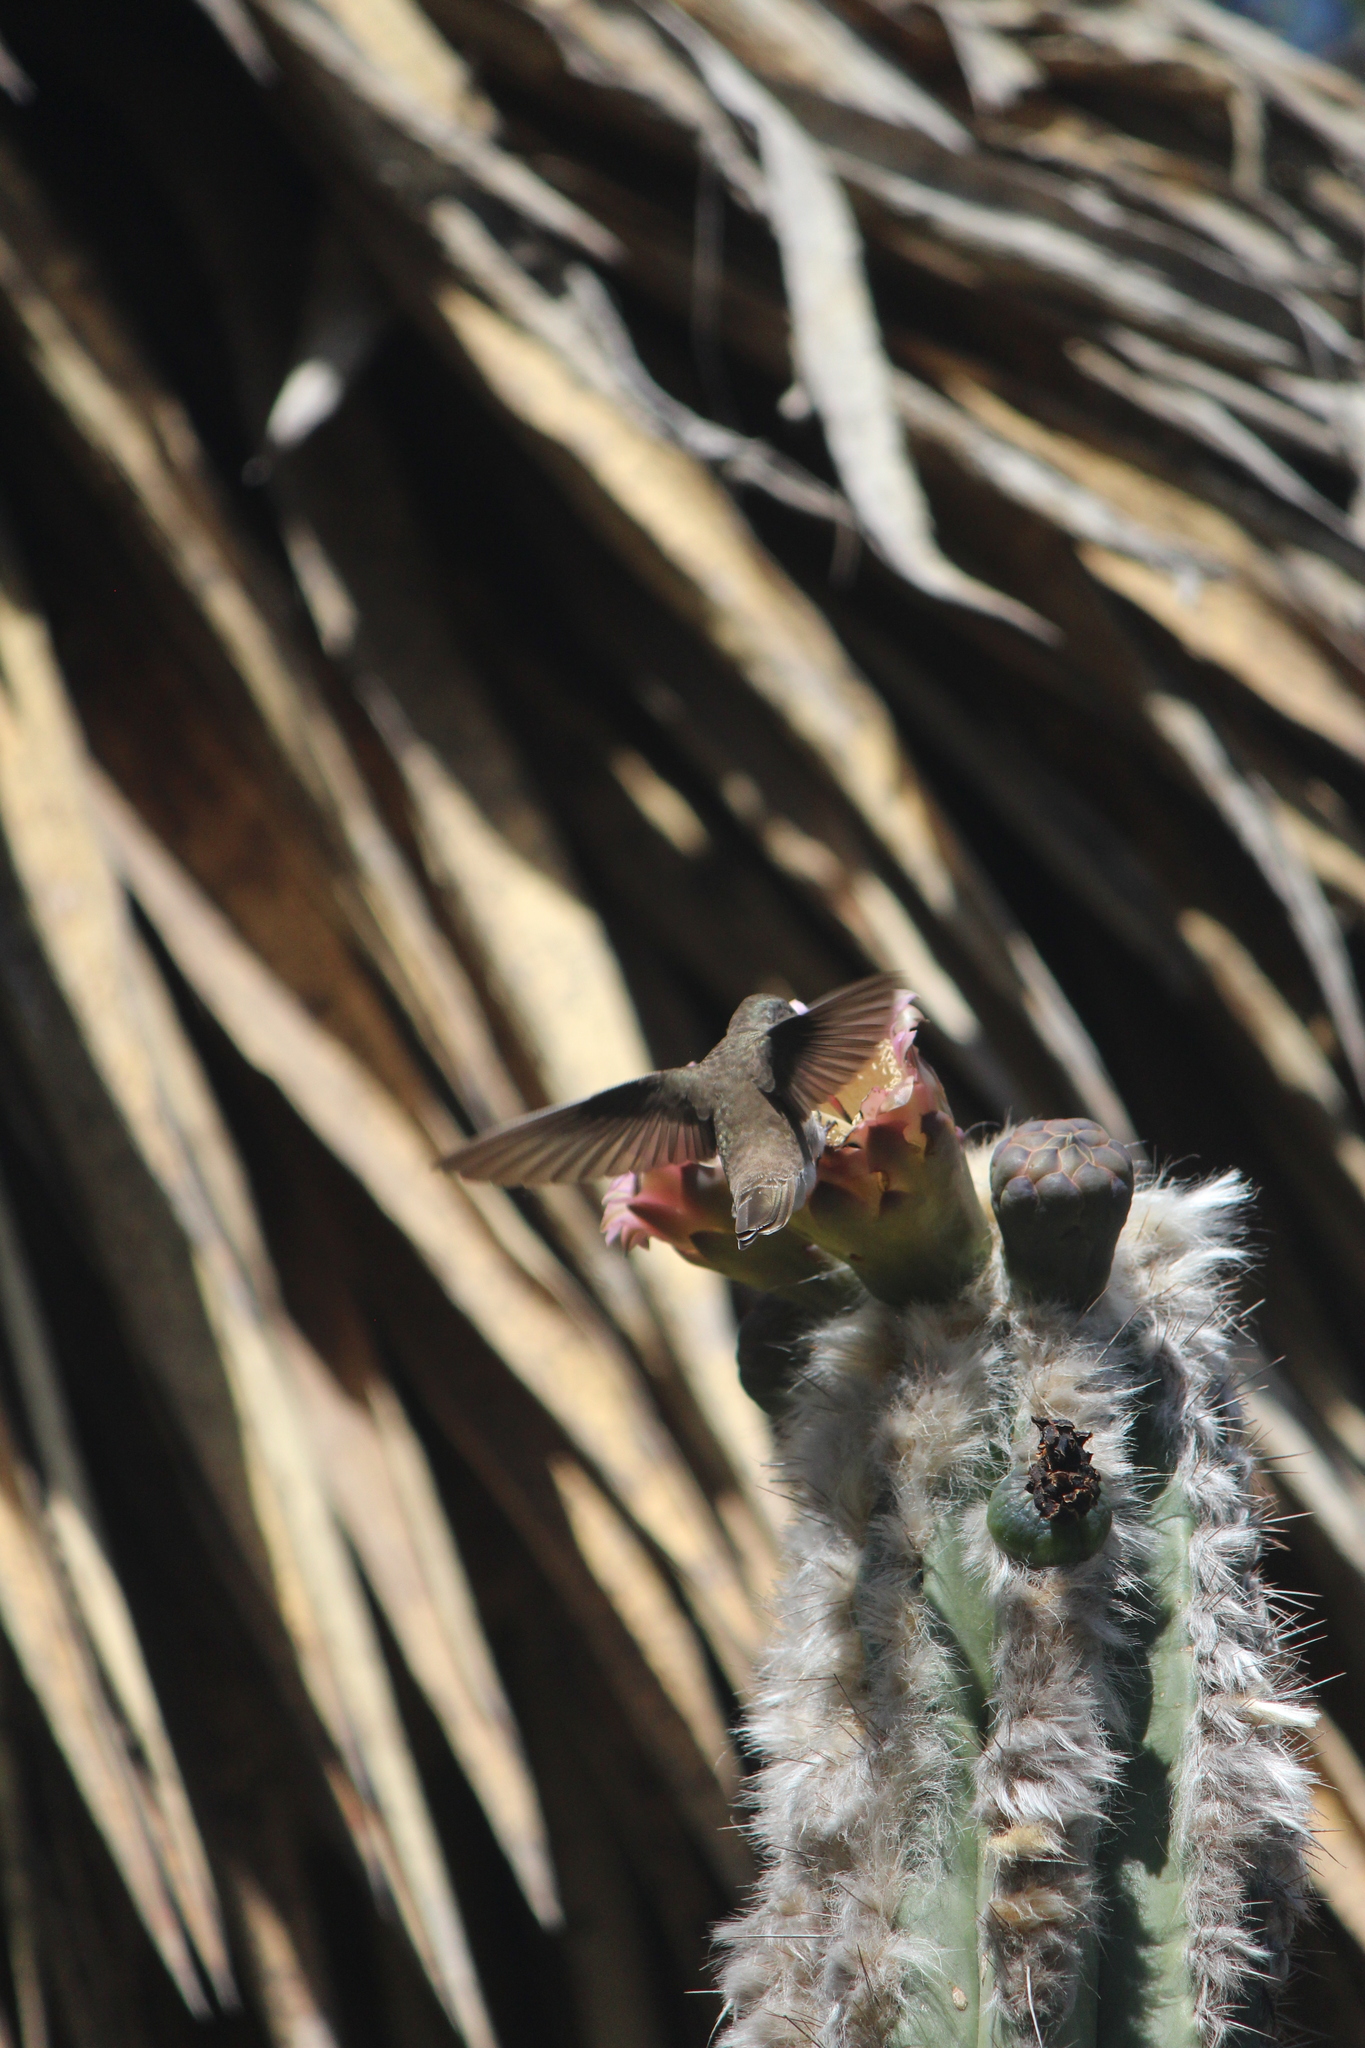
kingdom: Animalia
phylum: Chordata
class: Aves
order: Apodiformes
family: Trochilidae
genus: Leucolia
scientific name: Leucolia violiceps
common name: Violet-crowned hummingbird
